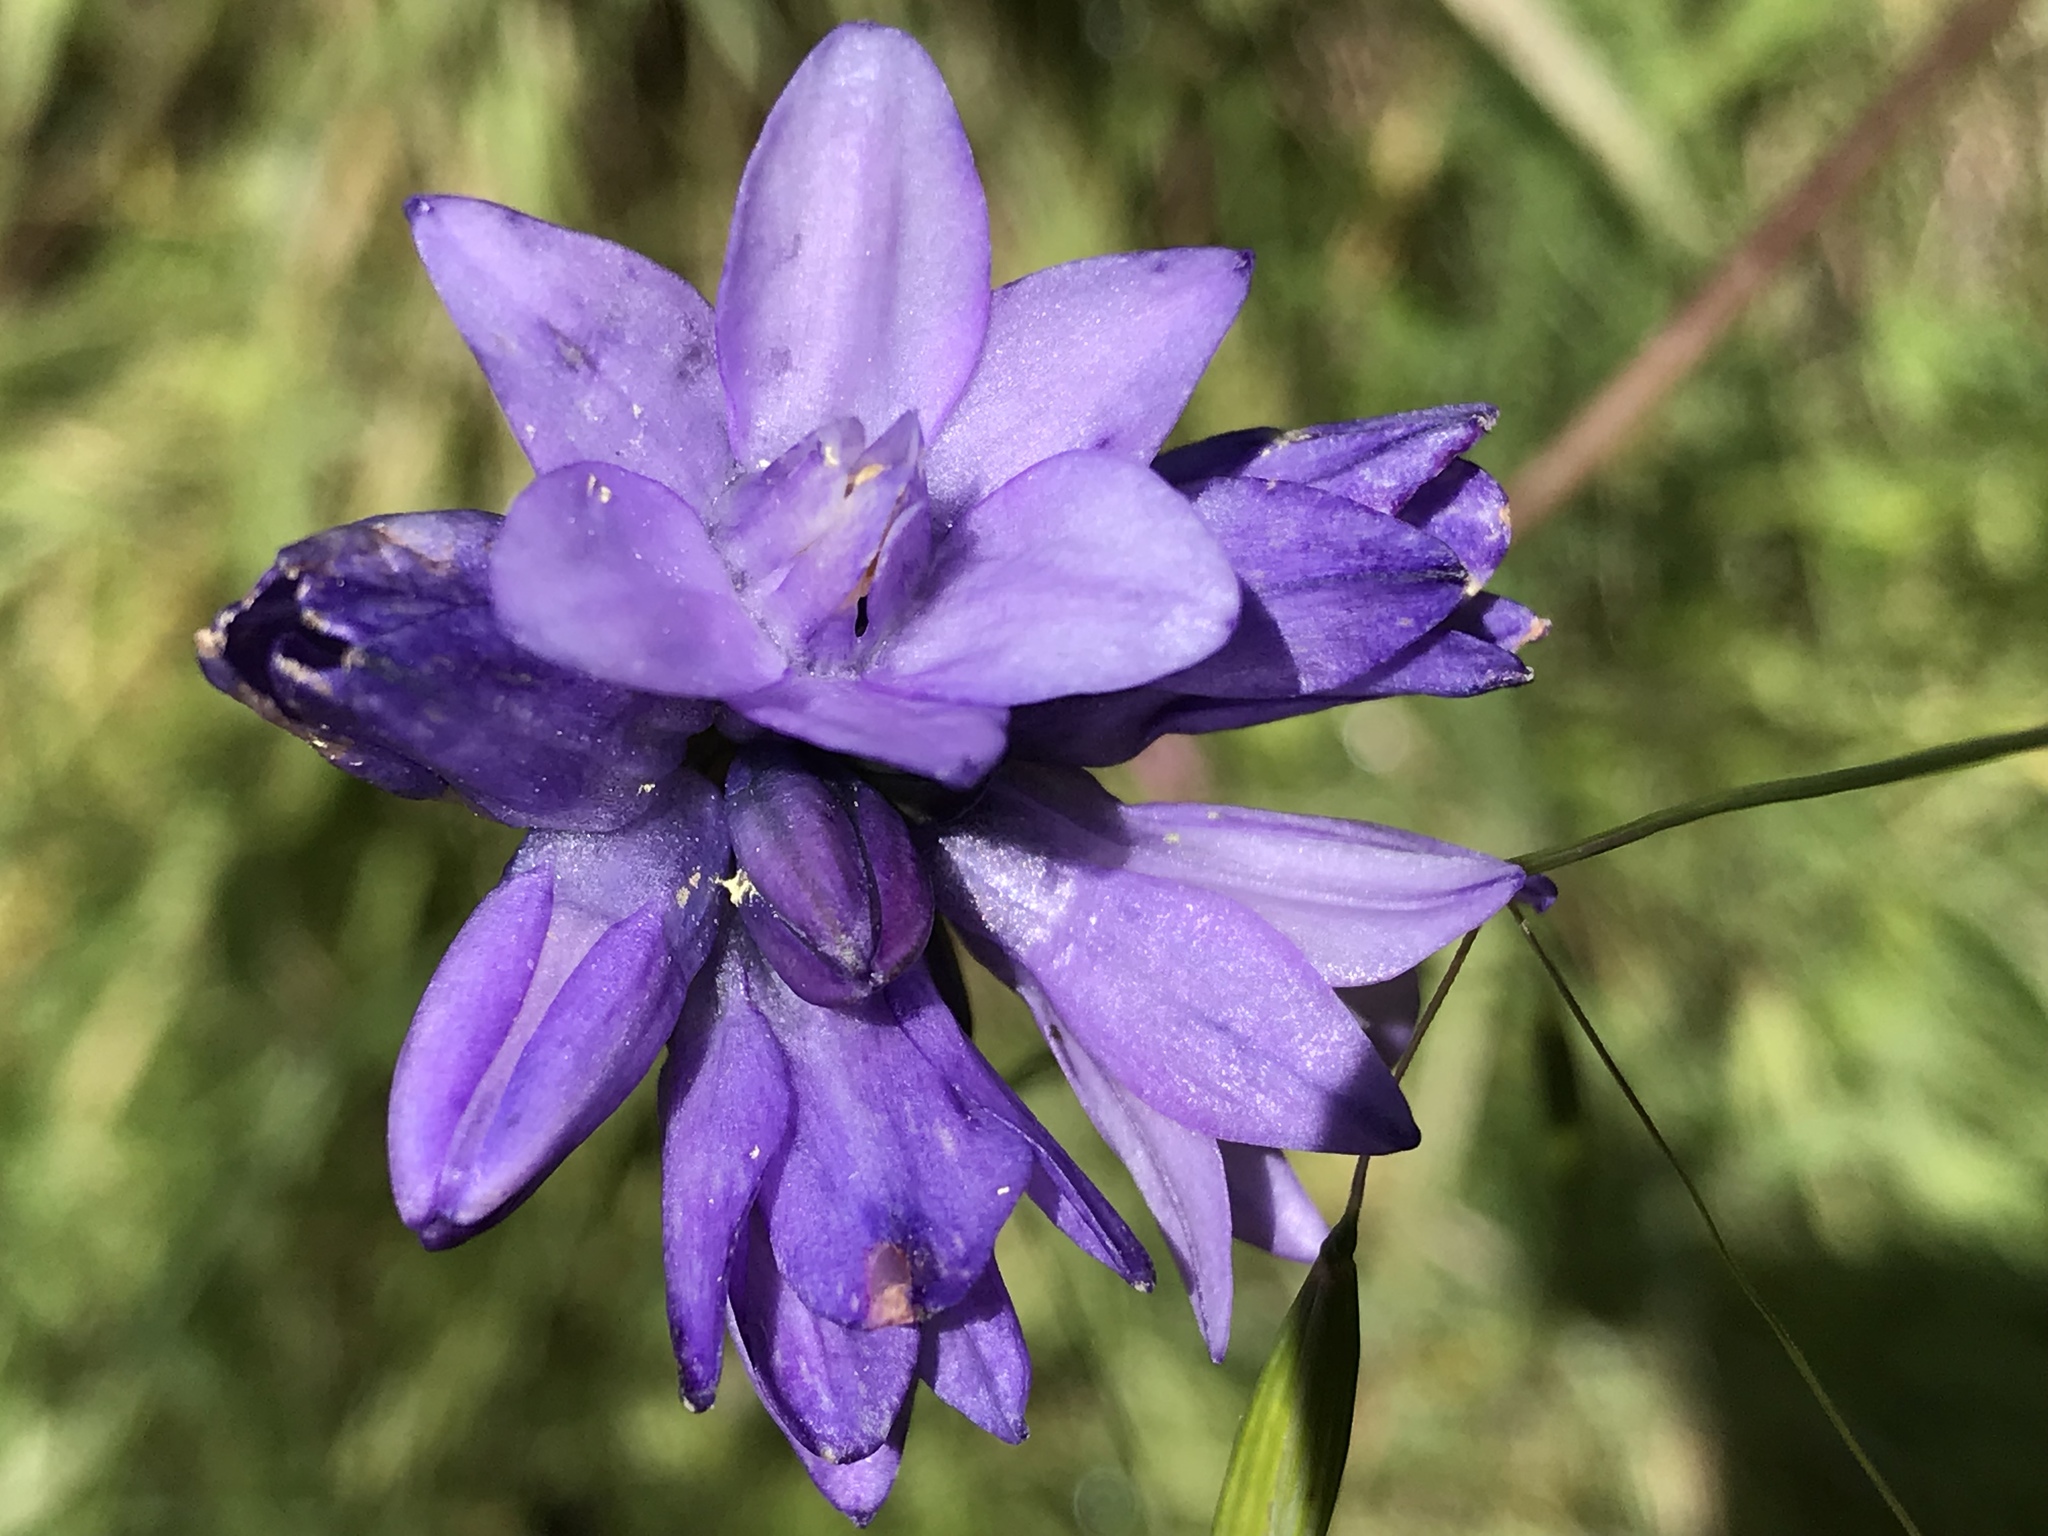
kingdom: Plantae
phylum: Tracheophyta
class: Liliopsida
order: Asparagales
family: Asparagaceae
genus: Dipterostemon
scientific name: Dipterostemon capitatus
